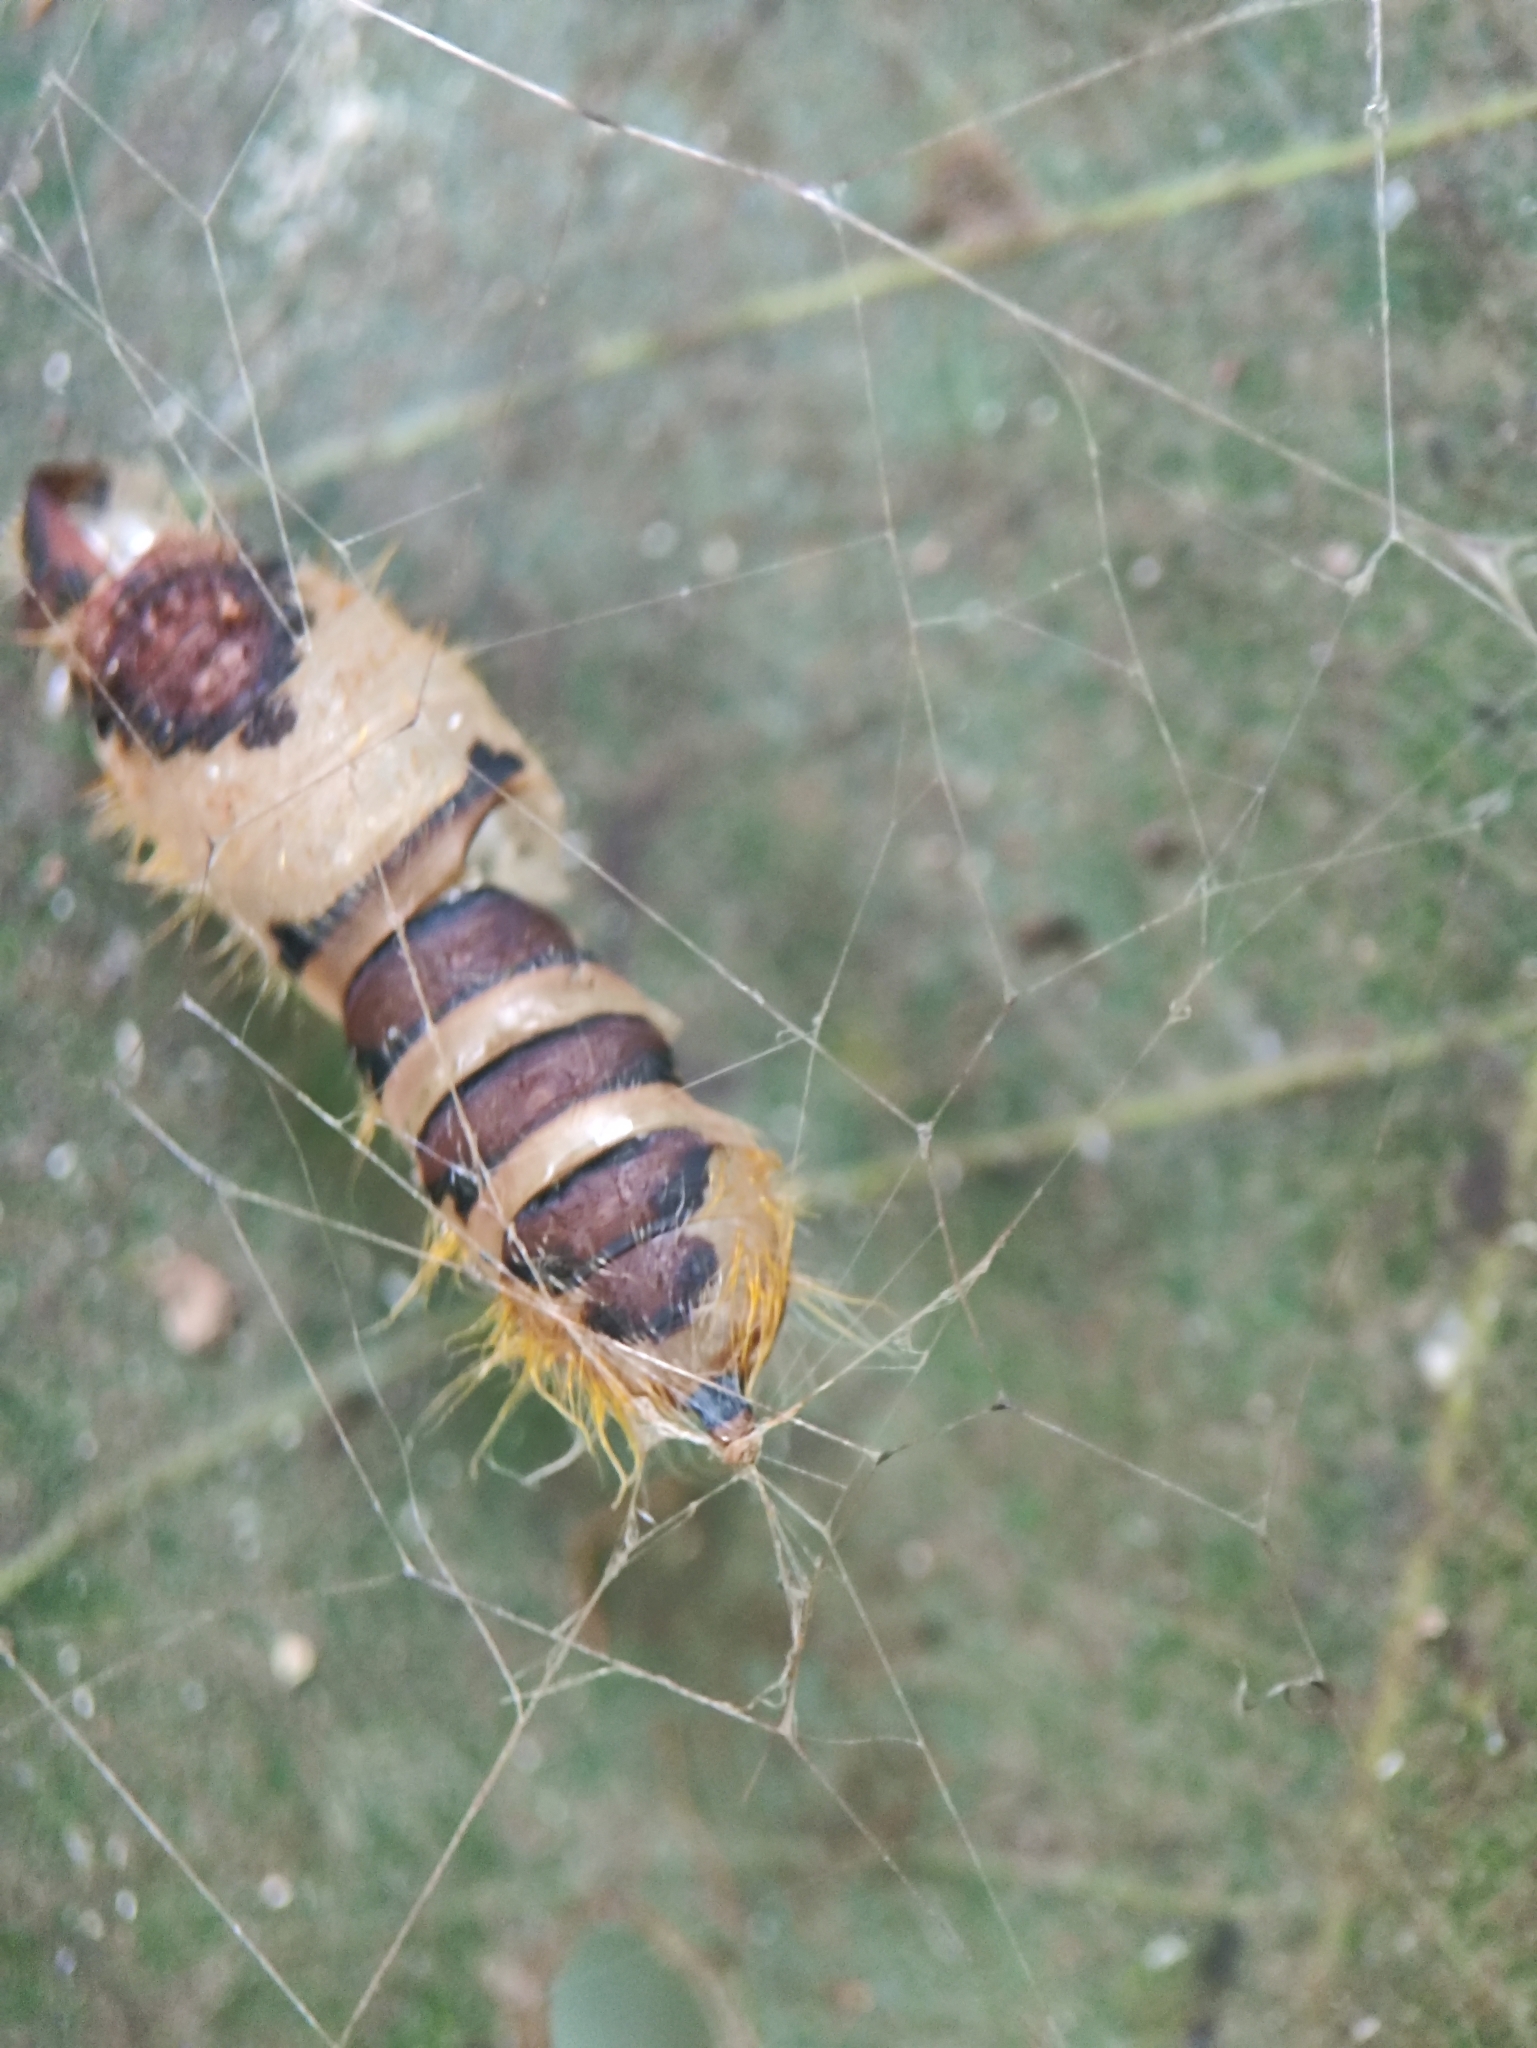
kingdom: Animalia
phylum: Arthropoda
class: Insecta
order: Lepidoptera
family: Erebidae
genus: Perina
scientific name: Perina nuda
